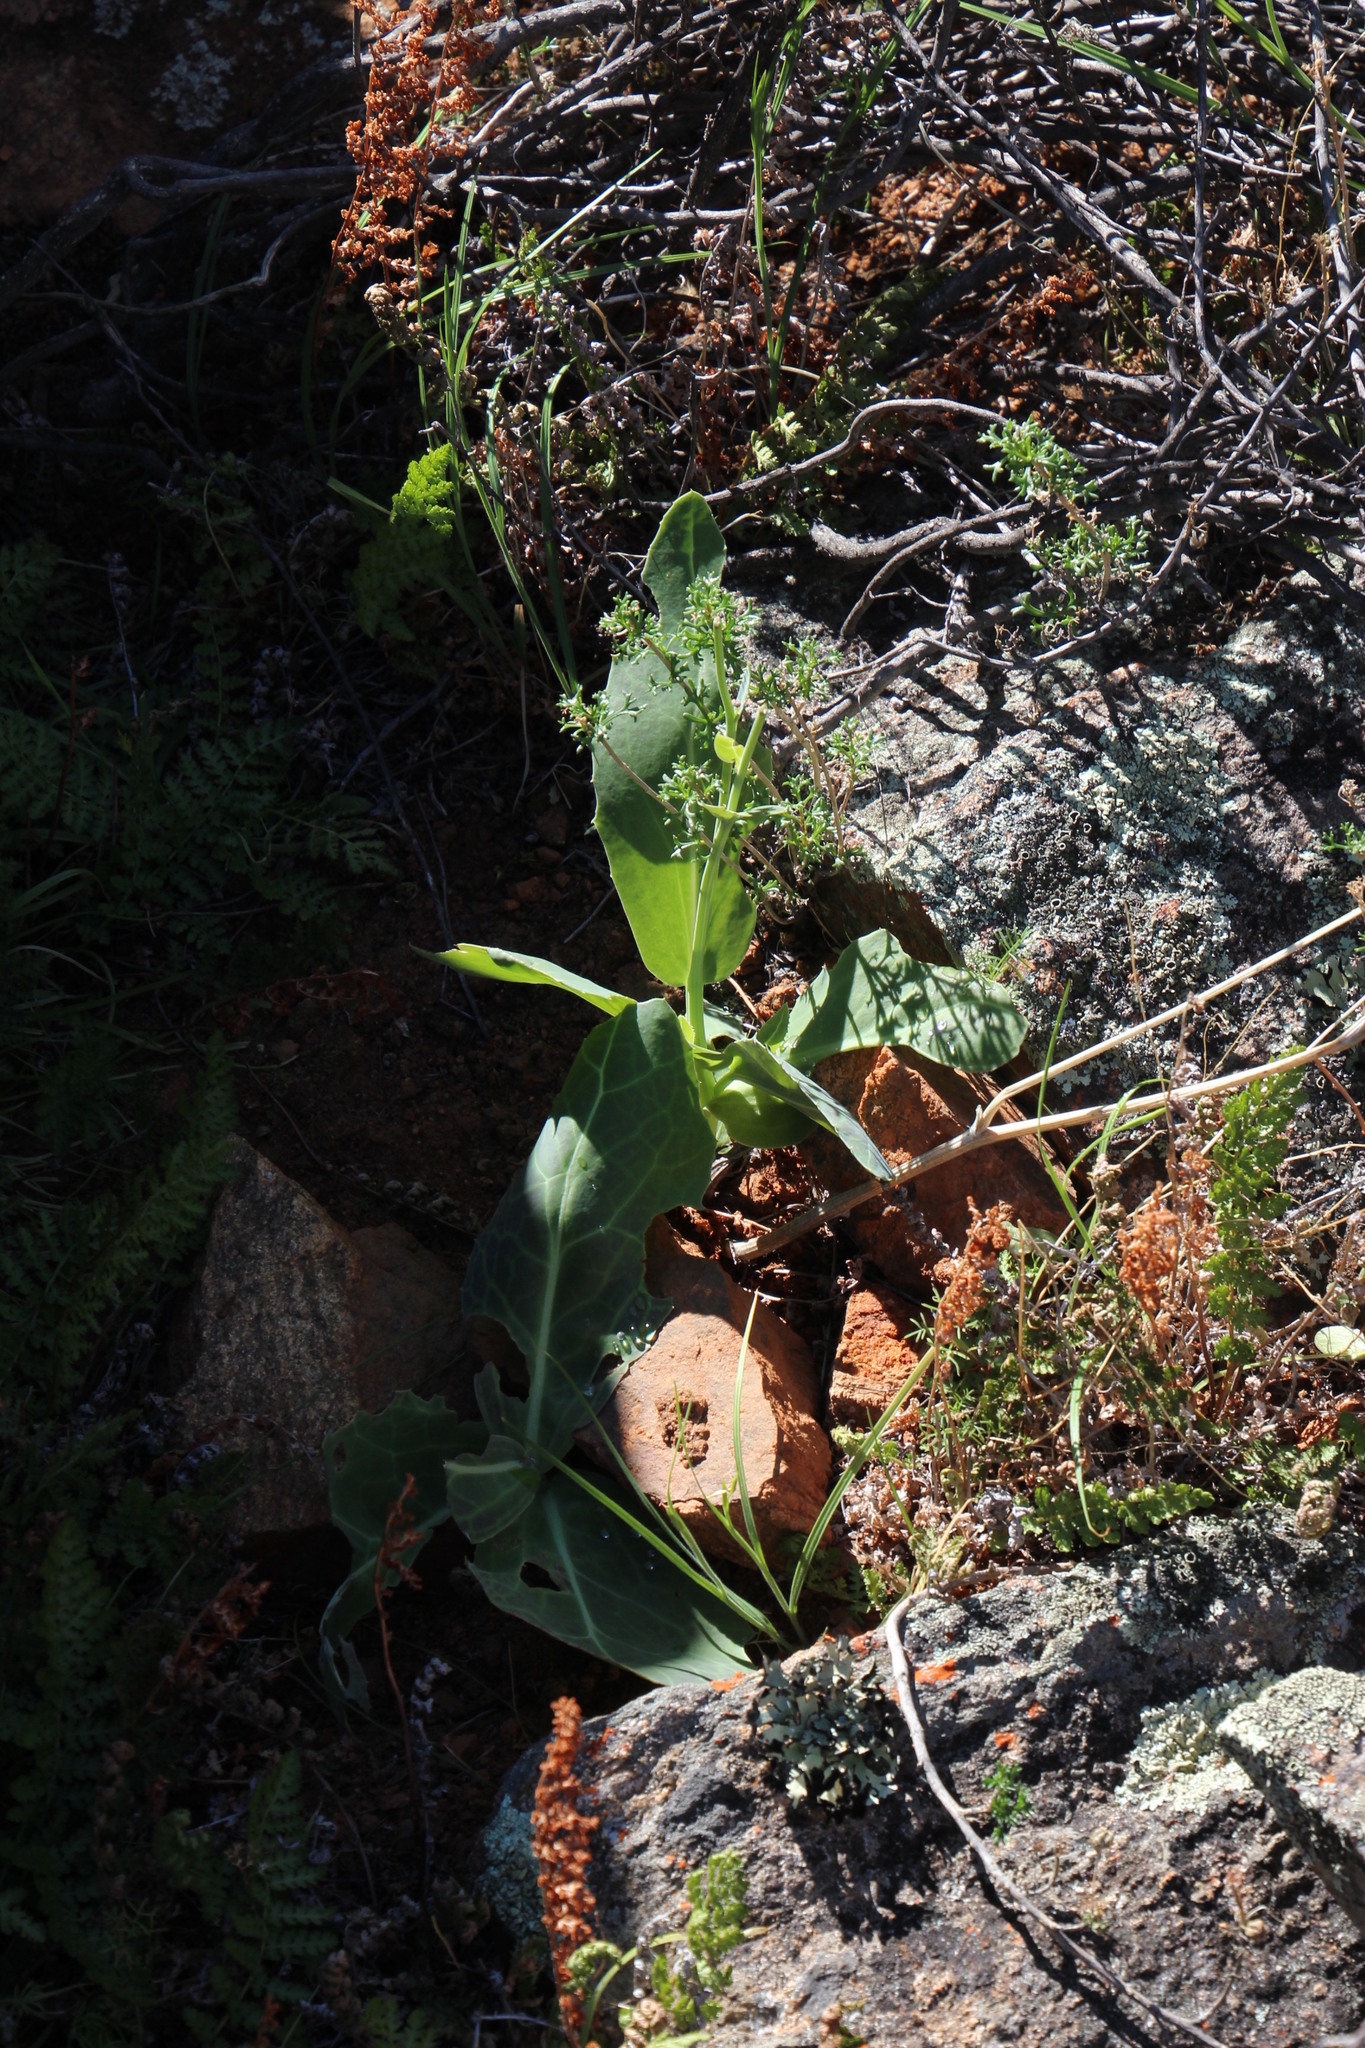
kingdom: Plantae
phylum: Tracheophyta
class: Magnoliopsida
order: Asterales
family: Asteraceae
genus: Othonna
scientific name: Othonna macrophylla
